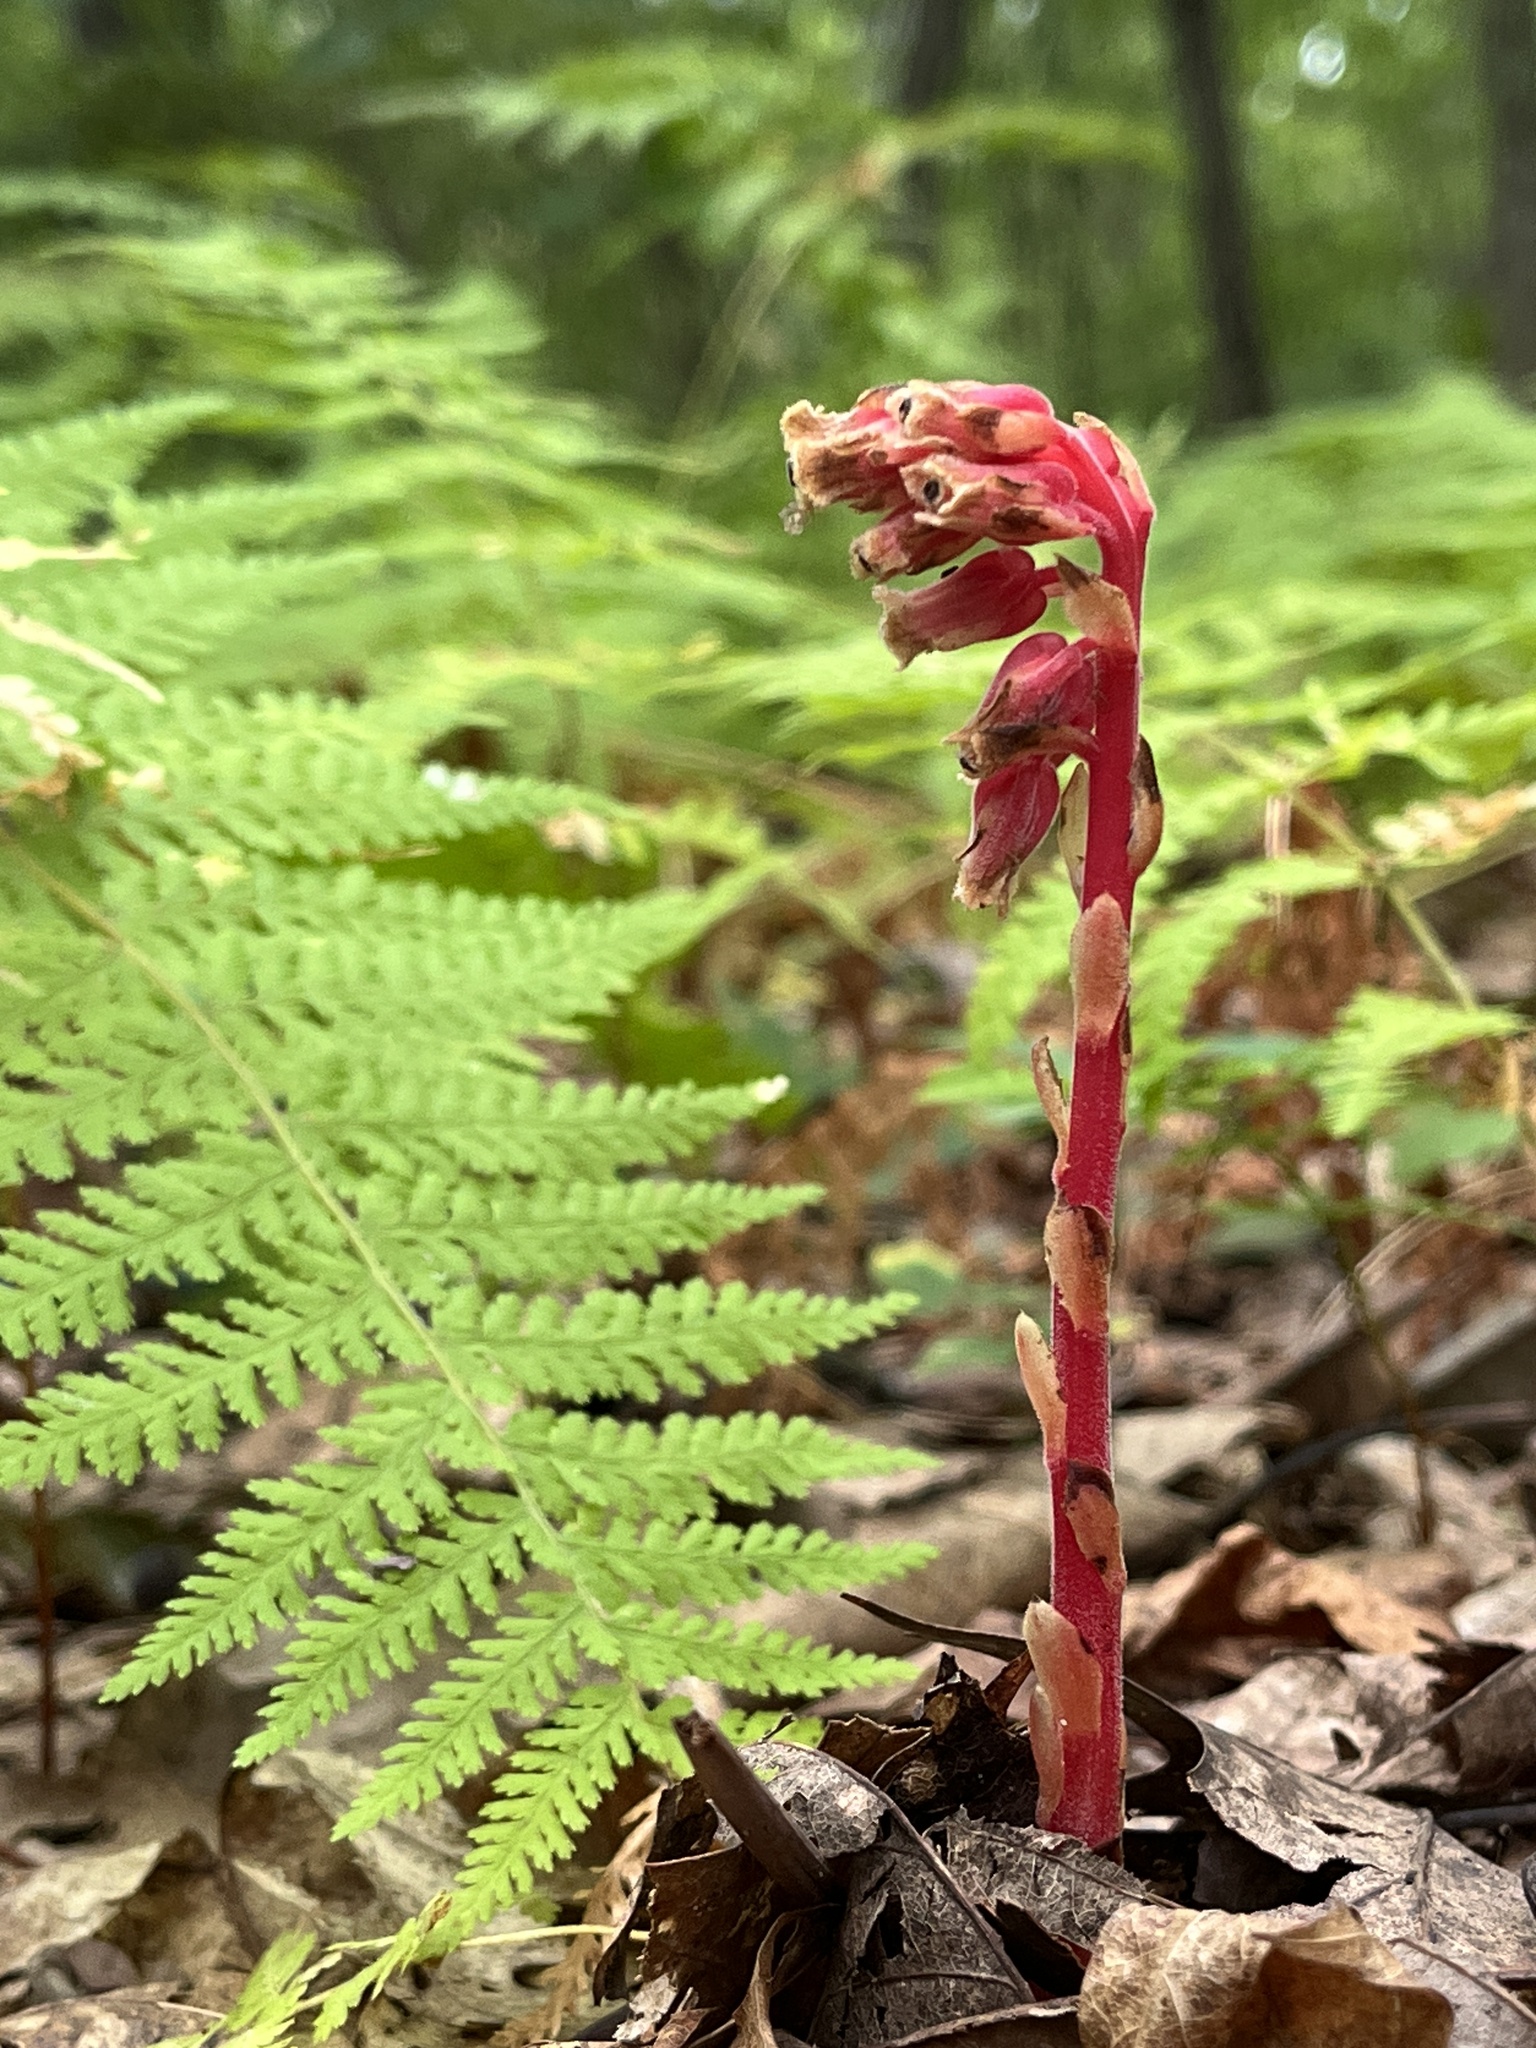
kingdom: Plantae
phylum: Tracheophyta
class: Magnoliopsida
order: Ericales
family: Ericaceae
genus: Hypopitys
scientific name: Hypopitys monotropa
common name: Yellow bird's-nest
